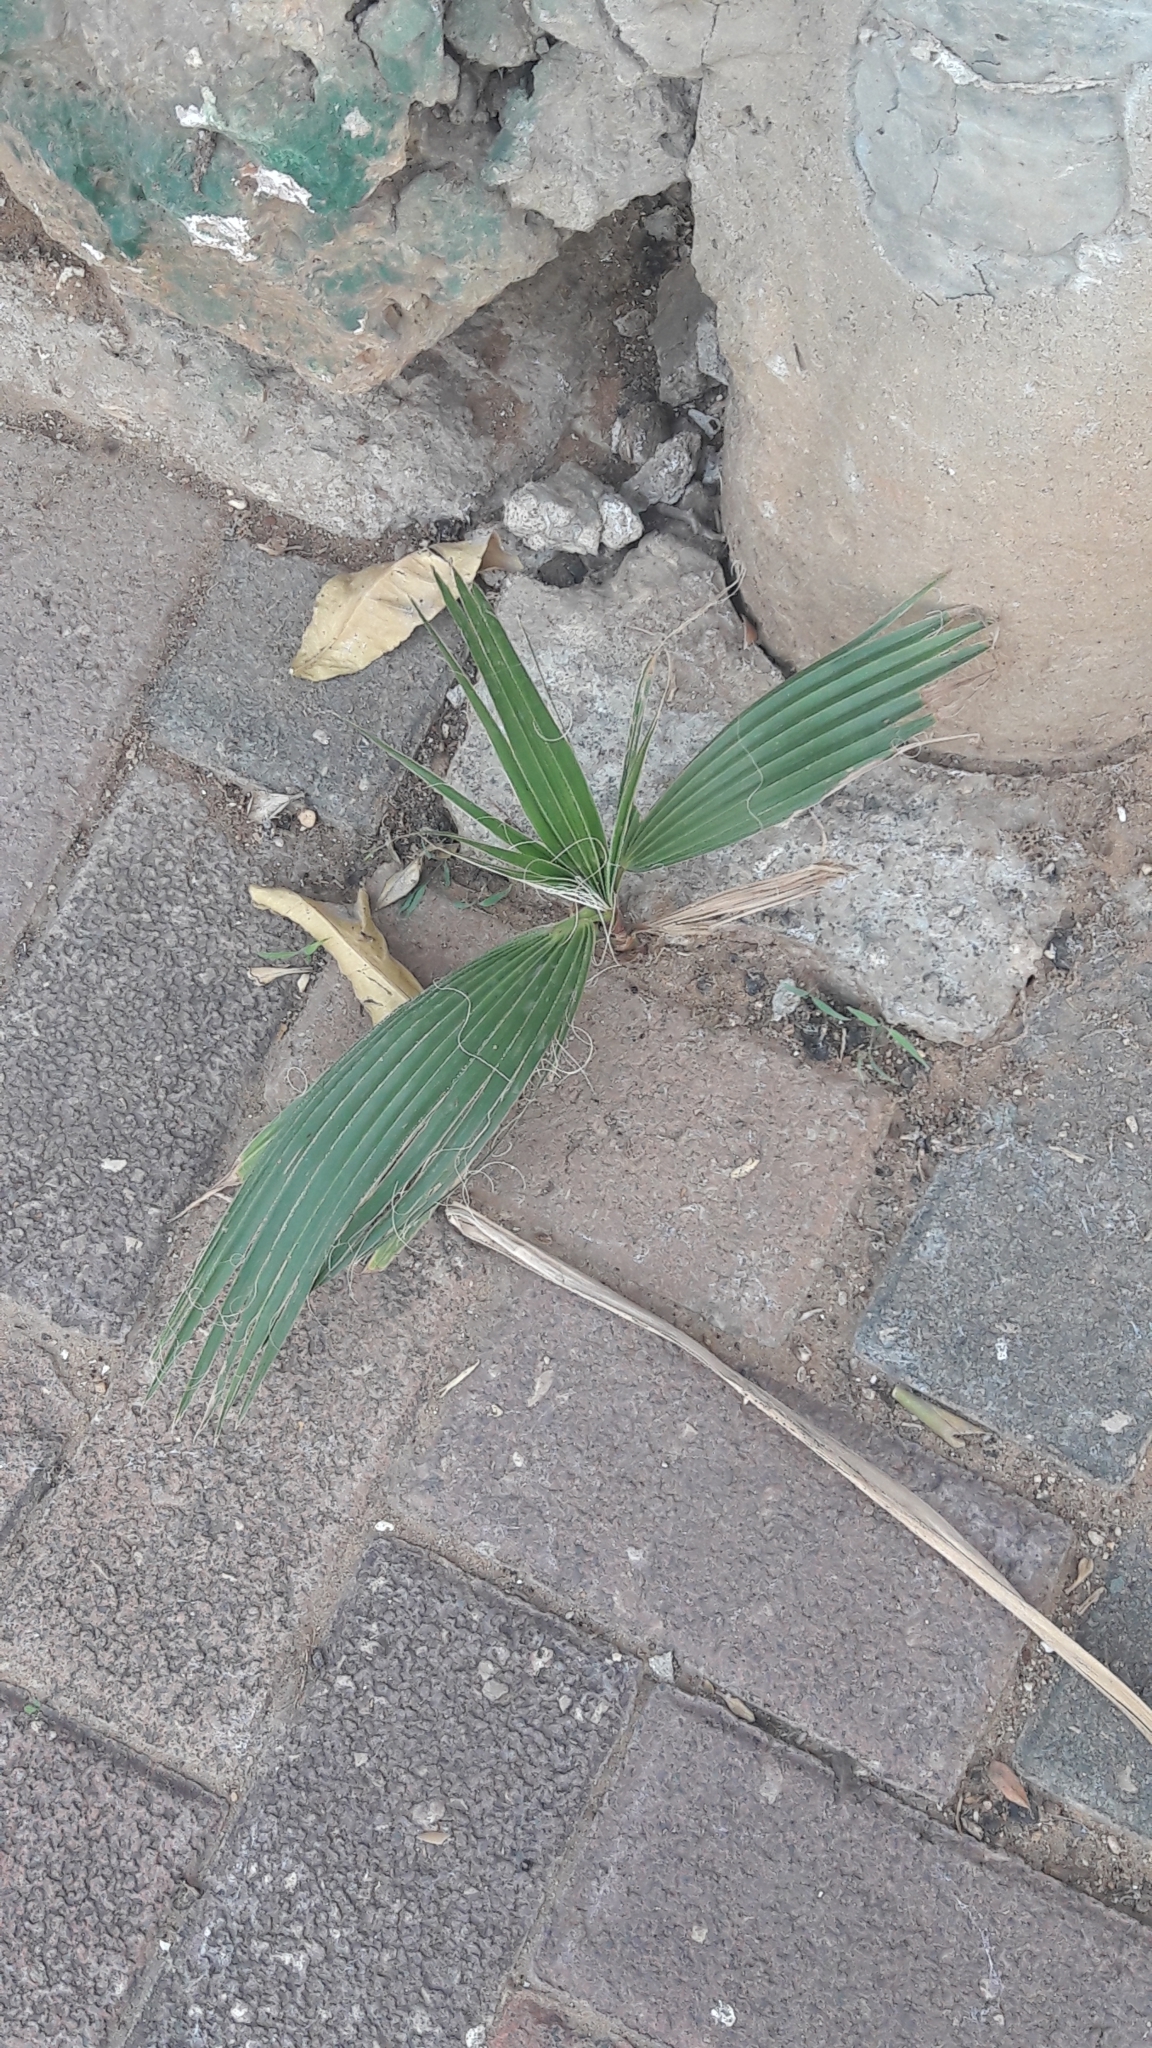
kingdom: Plantae
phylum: Tracheophyta
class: Liliopsida
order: Arecales
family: Arecaceae
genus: Washingtonia
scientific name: Washingtonia robusta
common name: Mexican fan palm
